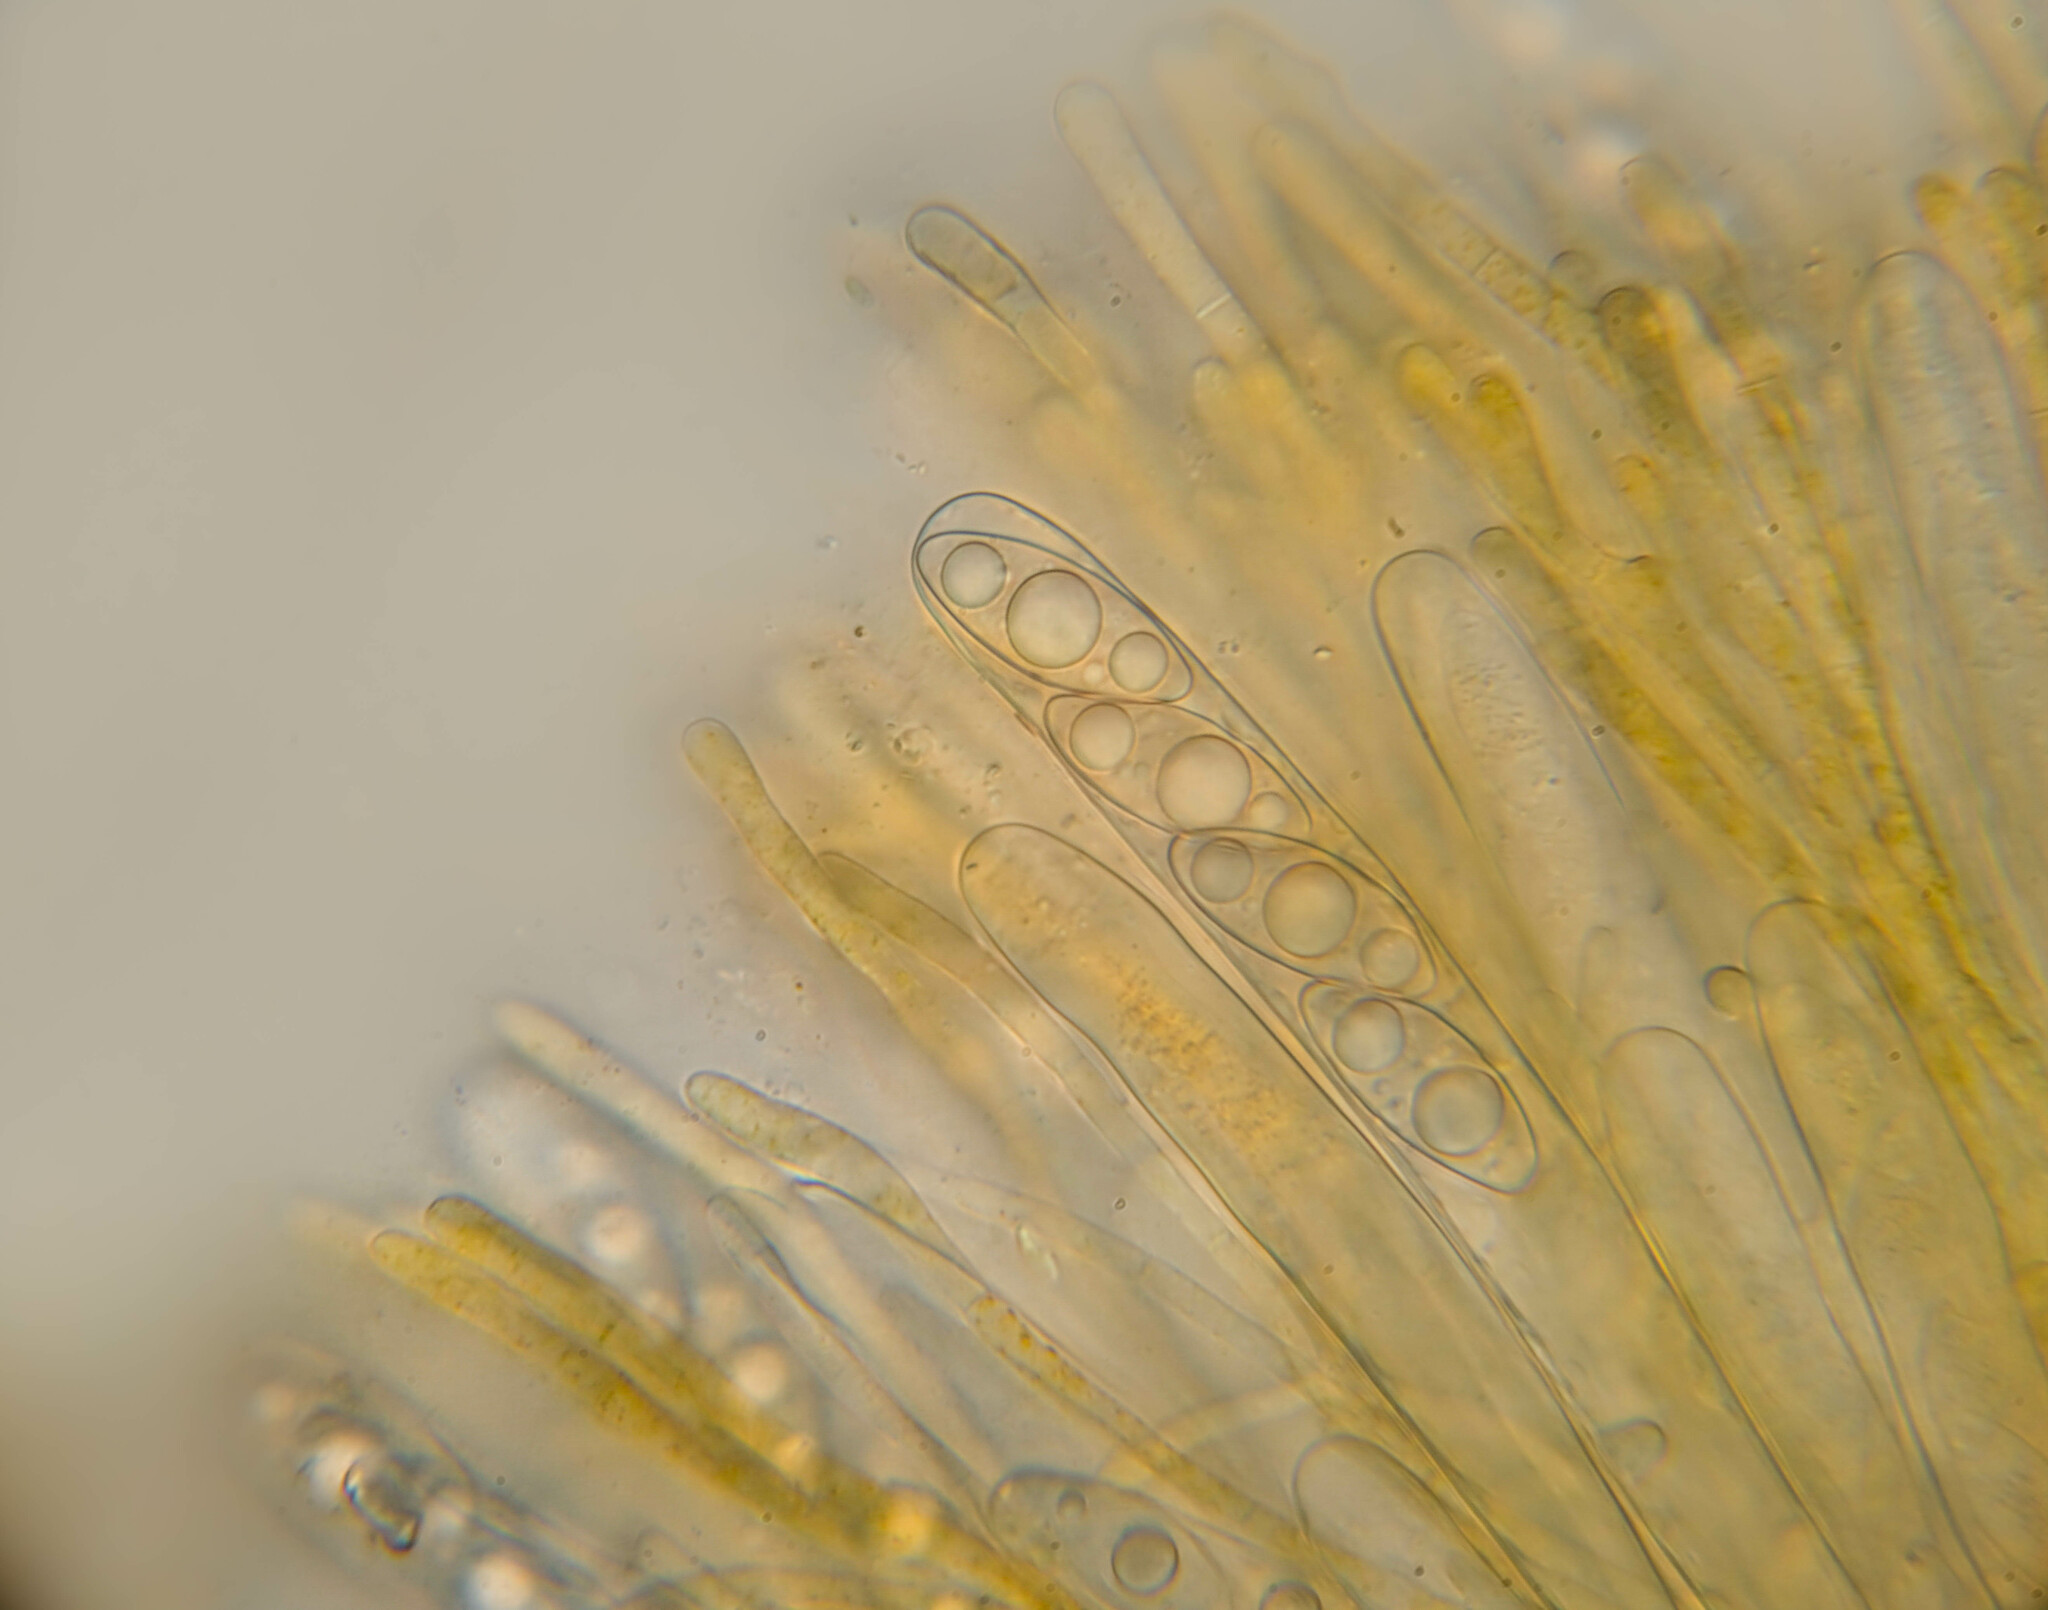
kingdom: Fungi
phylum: Ascomycota
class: Pezizomycetes
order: Pezizales
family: Pyronemataceae
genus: Octospora
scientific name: Octospora axillaris
